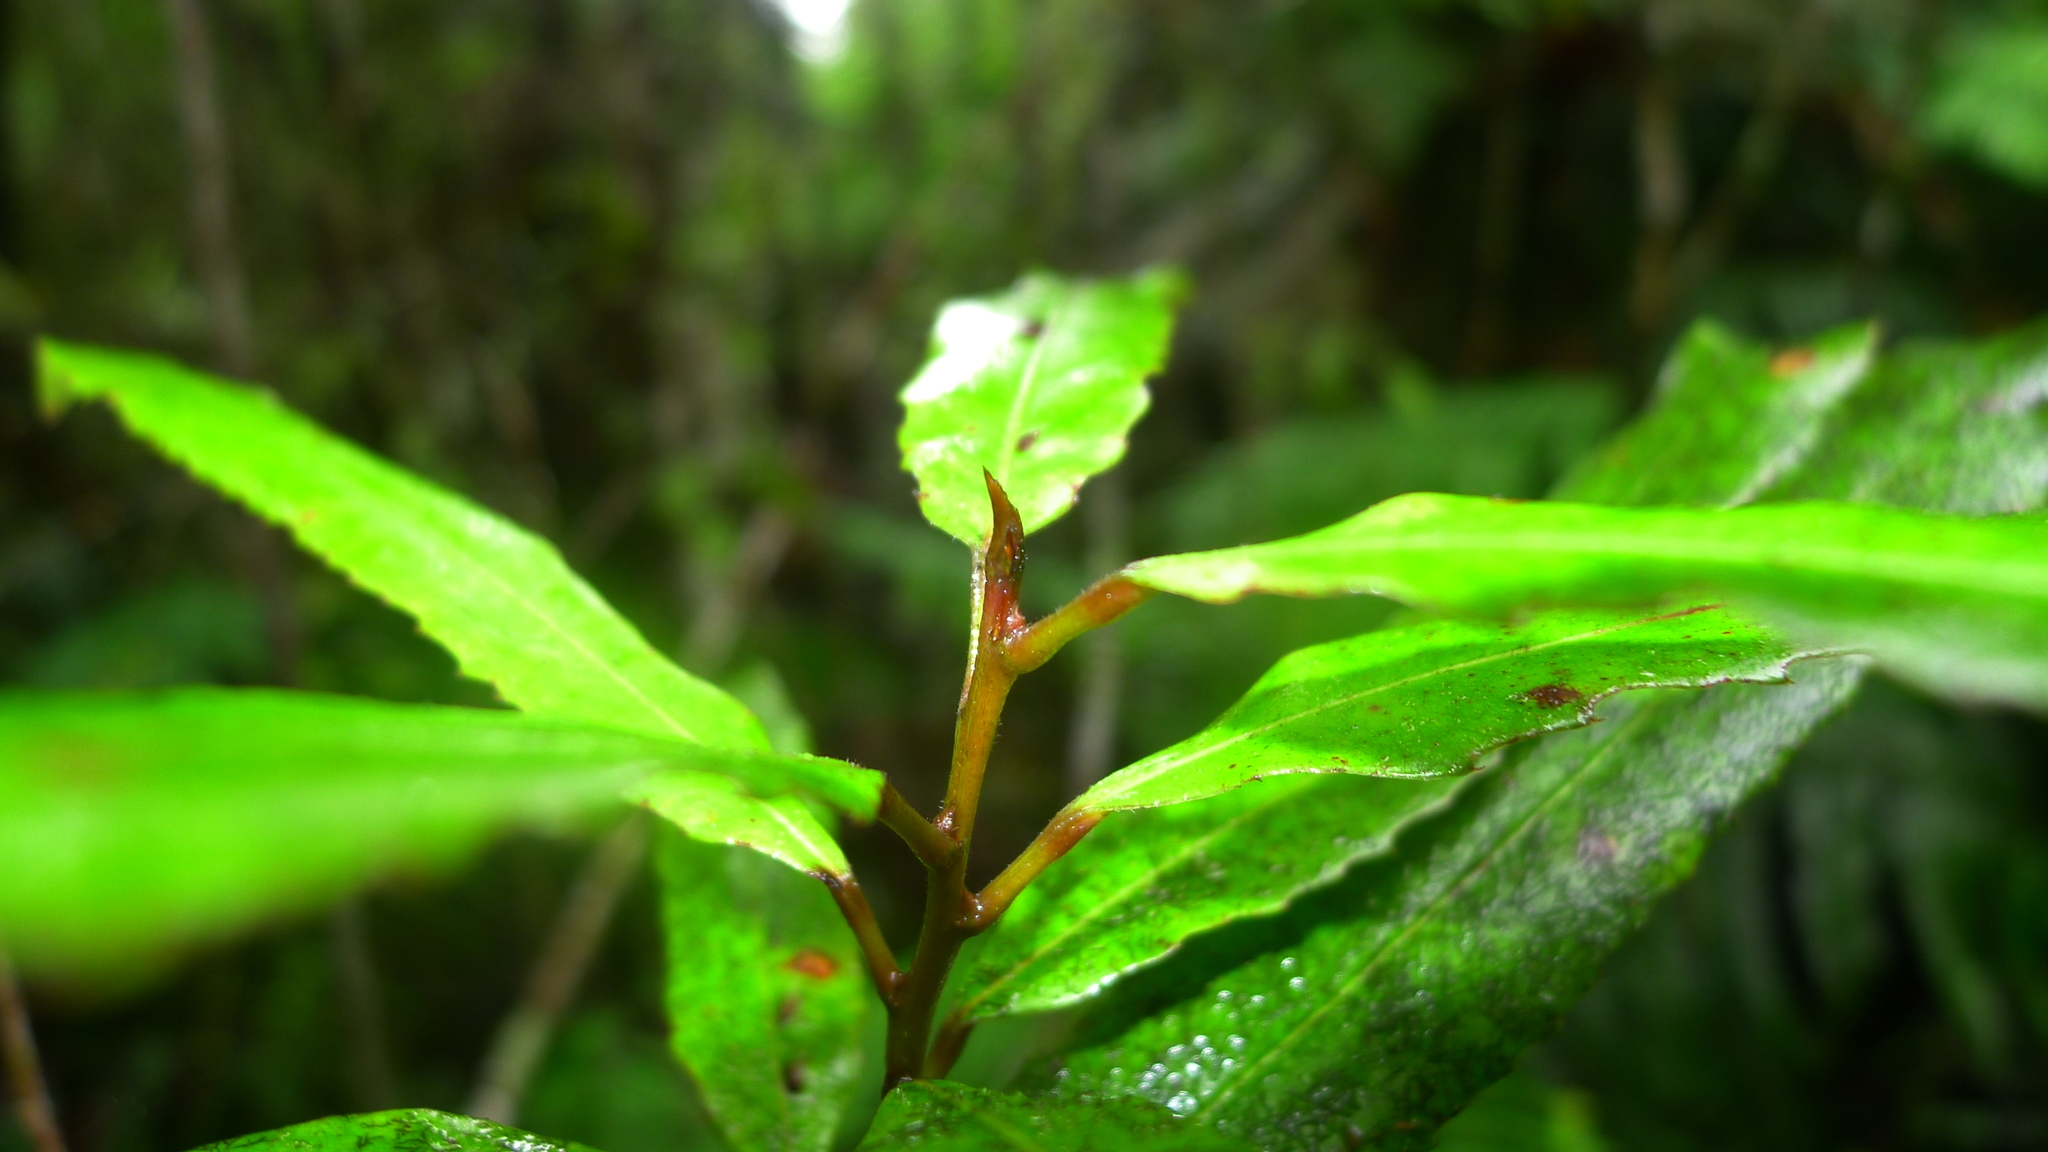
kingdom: Plantae
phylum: Tracheophyta
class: Magnoliopsida
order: Oxalidales
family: Elaeocarpaceae
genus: Elaeocarpus
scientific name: Elaeocarpus dentatus
